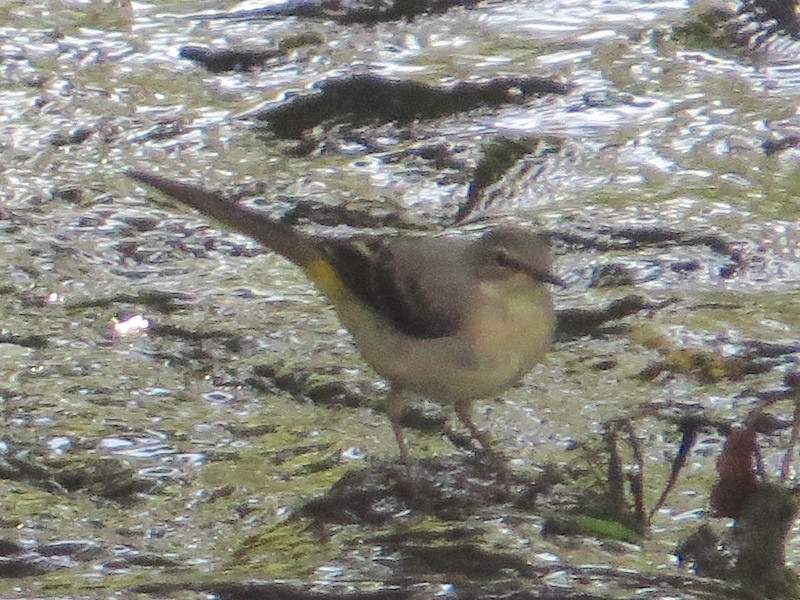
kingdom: Animalia
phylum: Chordata
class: Aves
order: Passeriformes
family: Motacillidae
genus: Motacilla
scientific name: Motacilla cinerea
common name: Grey wagtail
